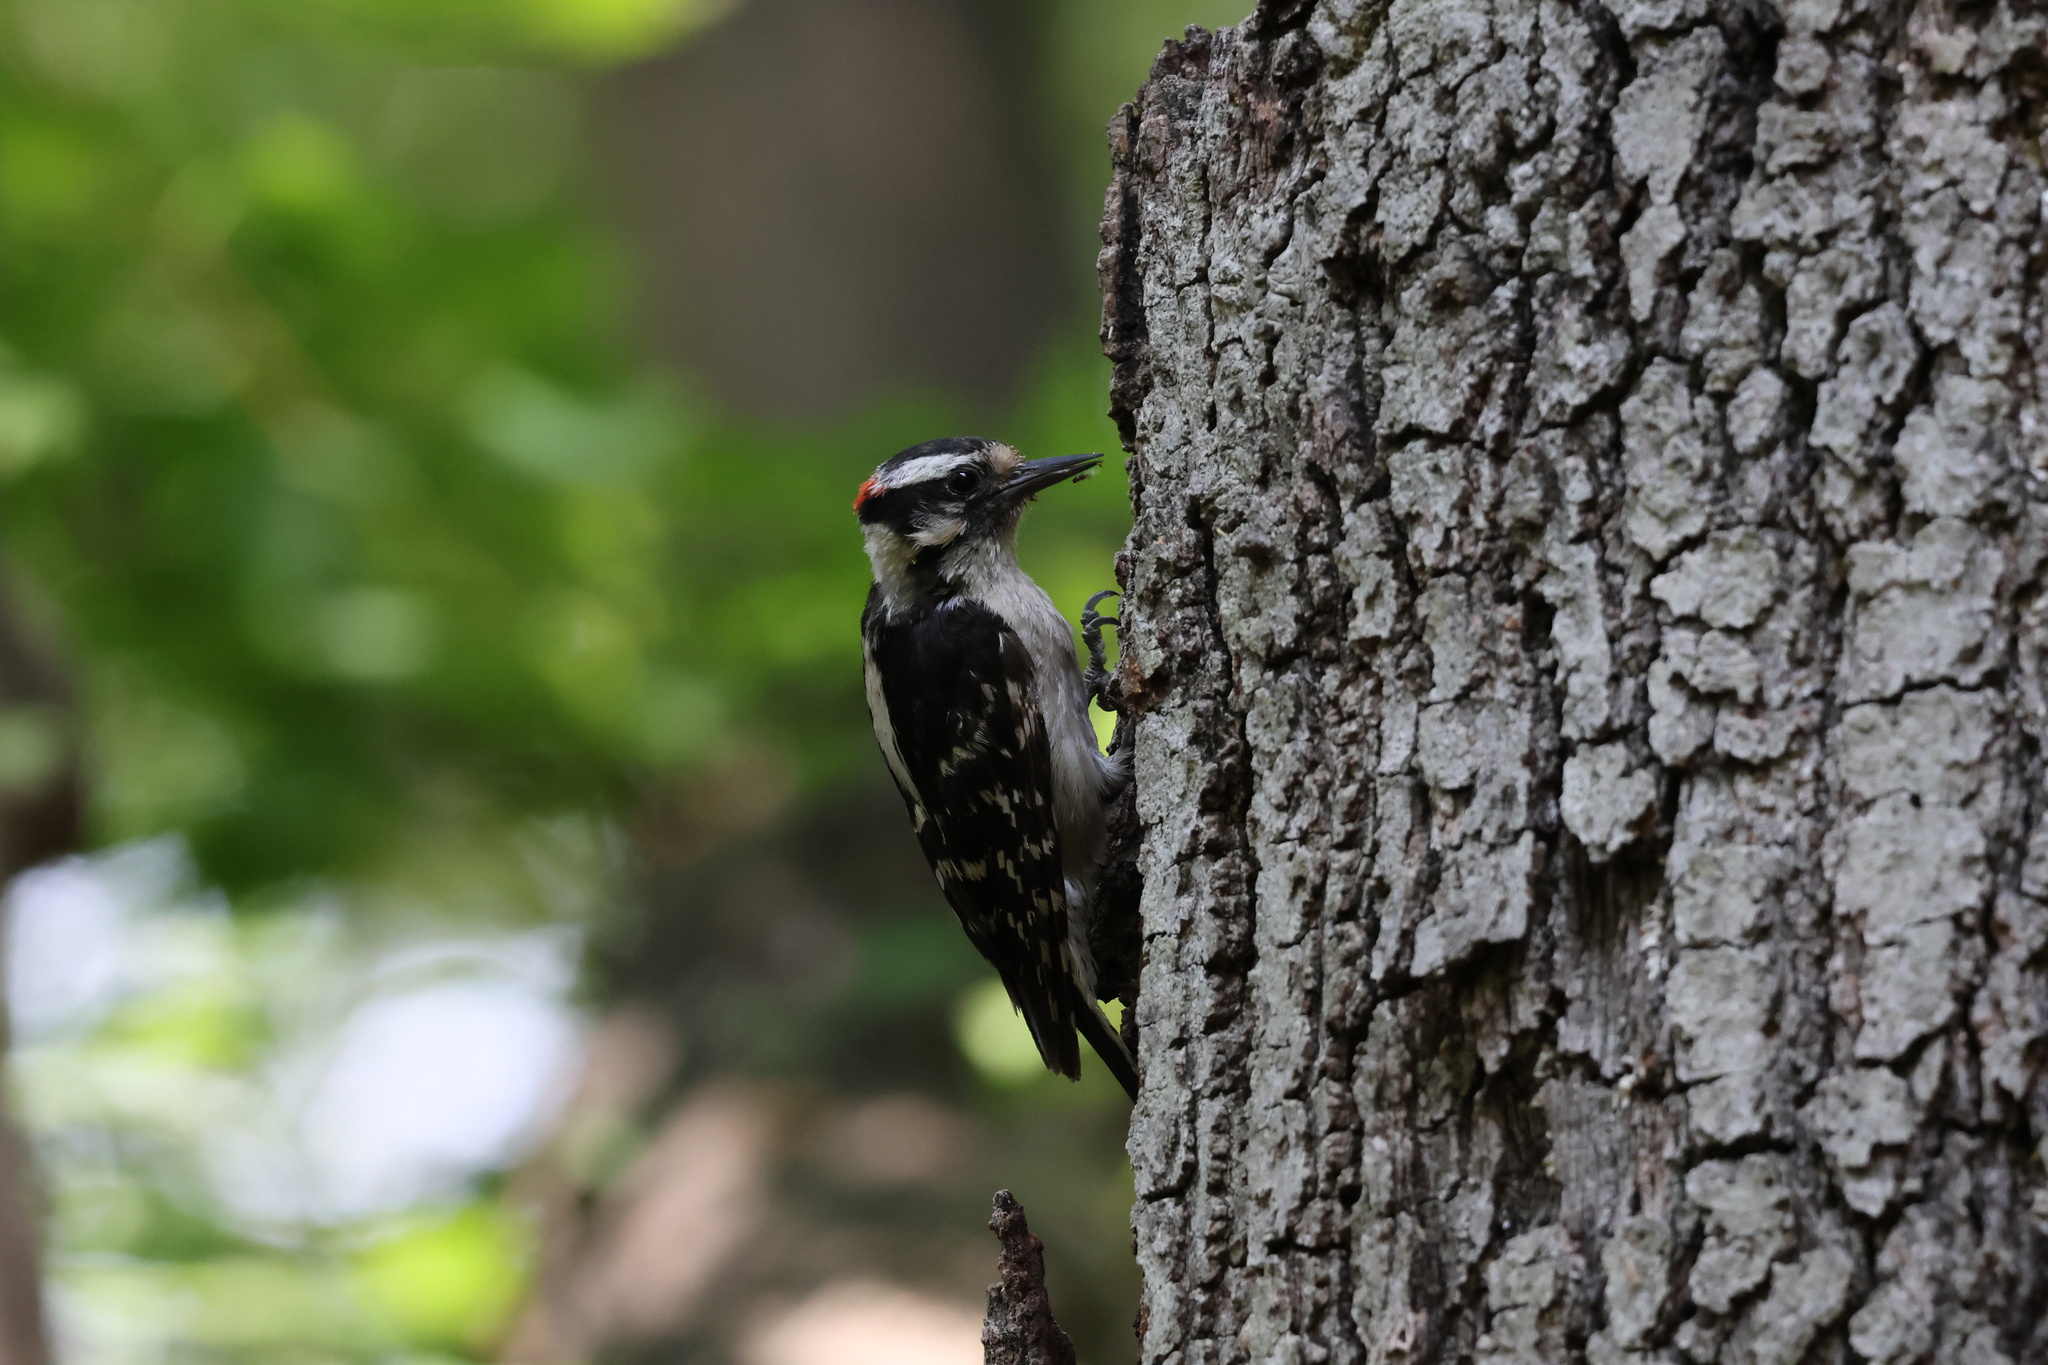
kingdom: Animalia
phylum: Chordata
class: Aves
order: Piciformes
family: Picidae
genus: Dryobates
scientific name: Dryobates pubescens
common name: Downy woodpecker
